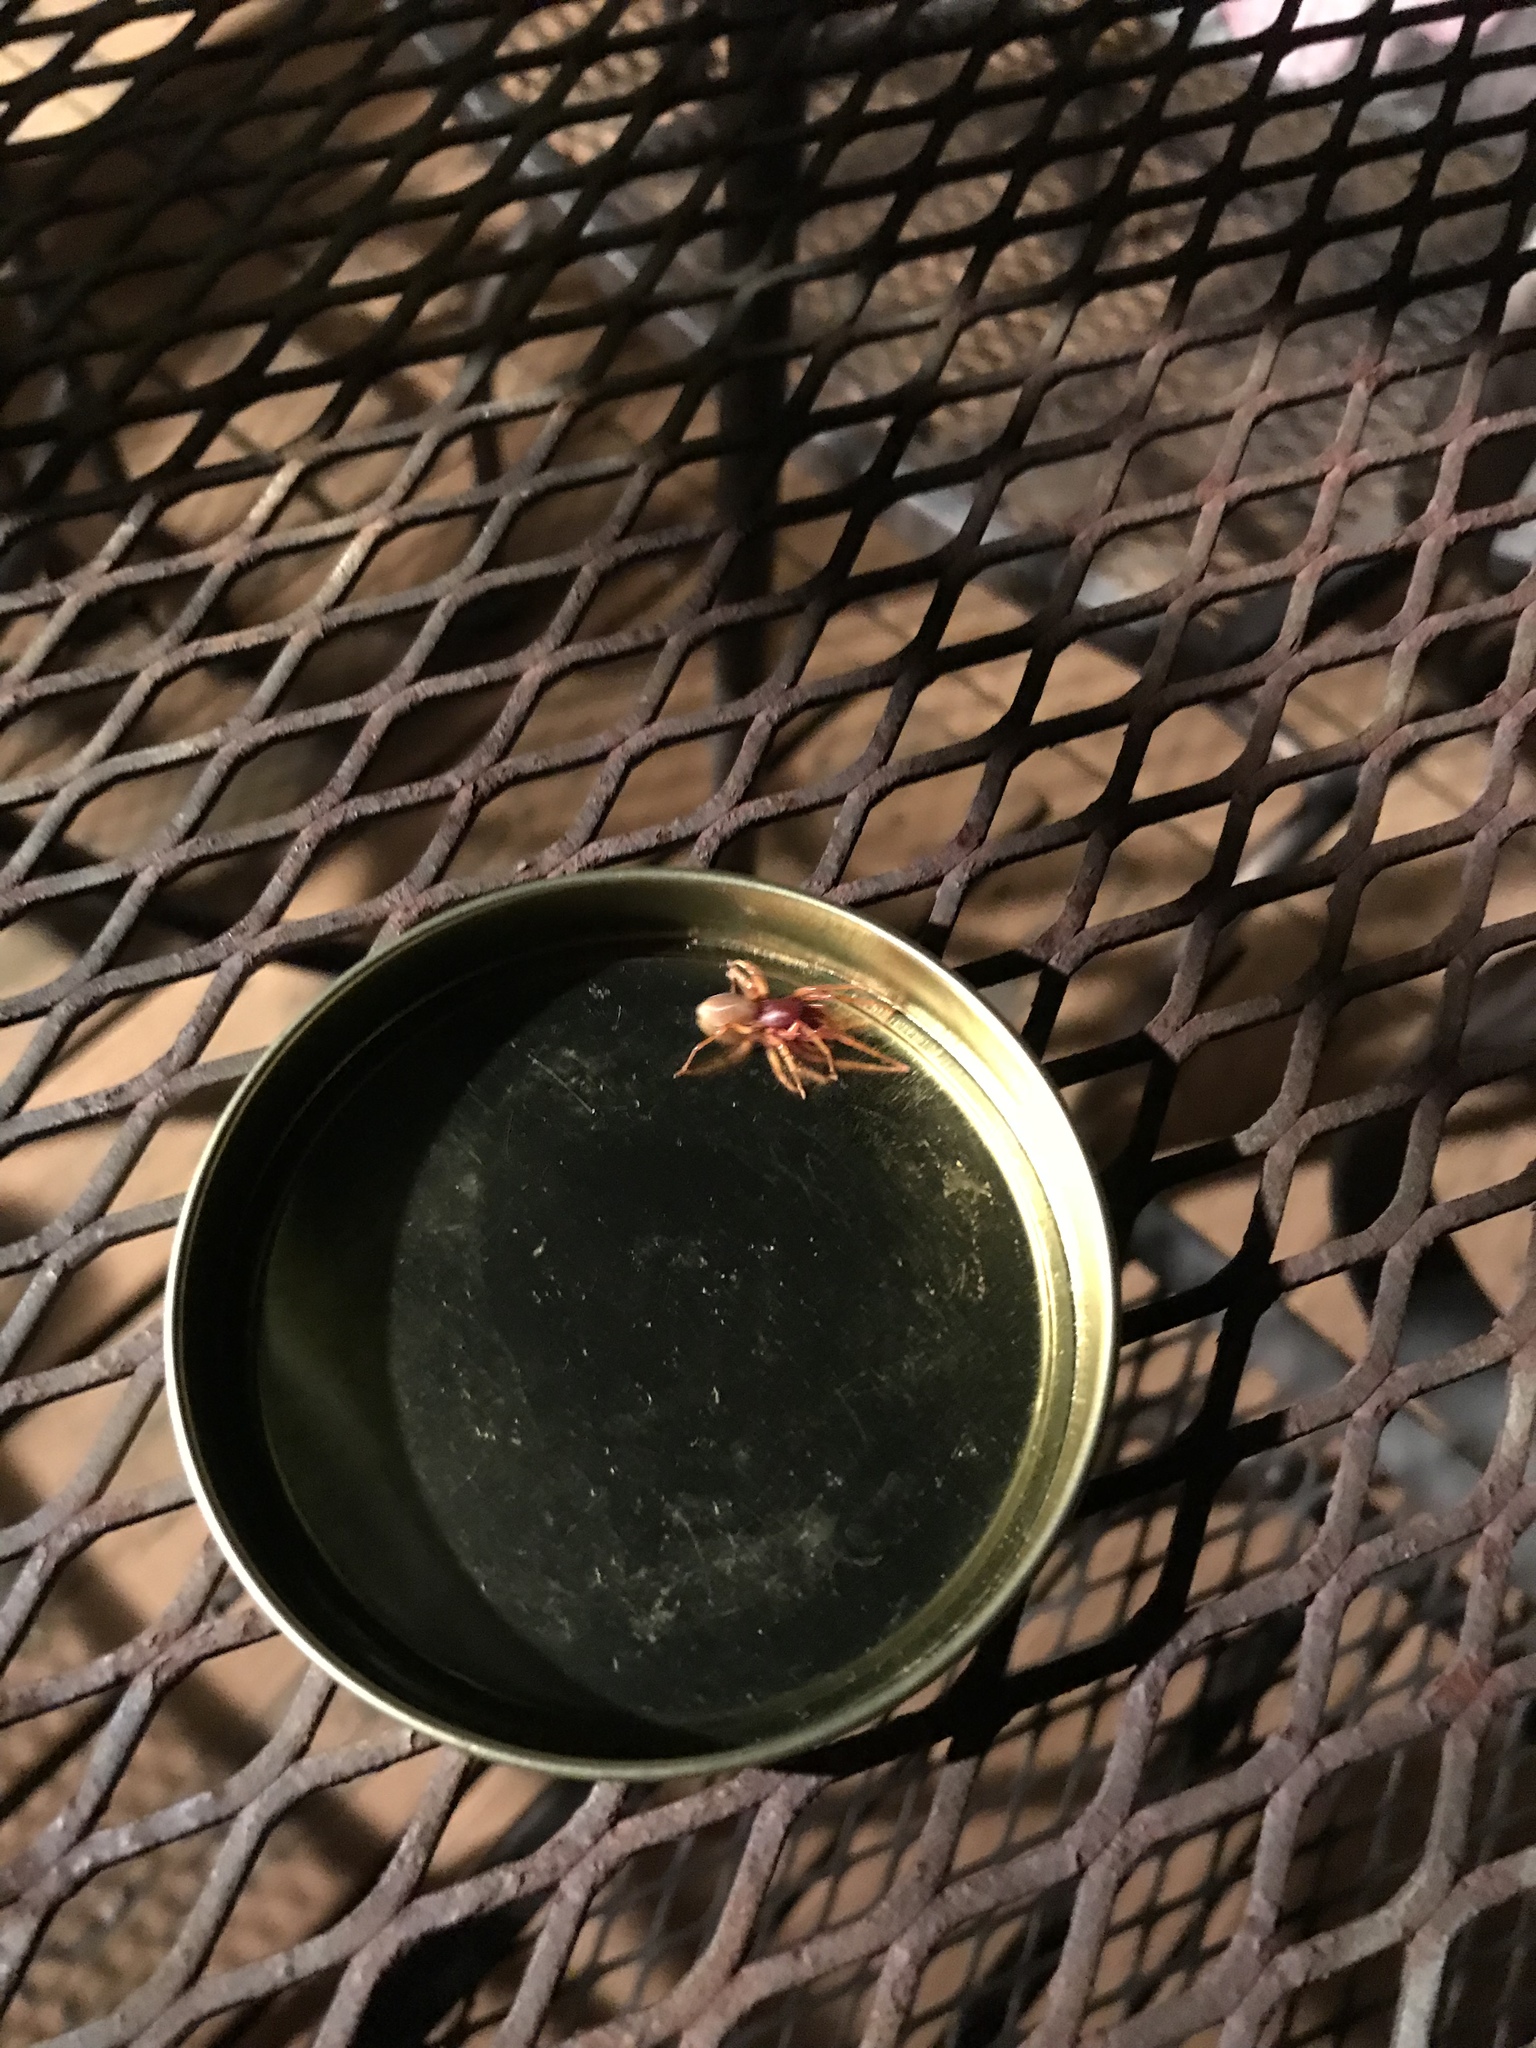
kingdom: Animalia
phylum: Arthropoda
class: Arachnida
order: Araneae
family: Dysderidae
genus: Dysdera
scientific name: Dysdera crocata
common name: Woodlouse spider
